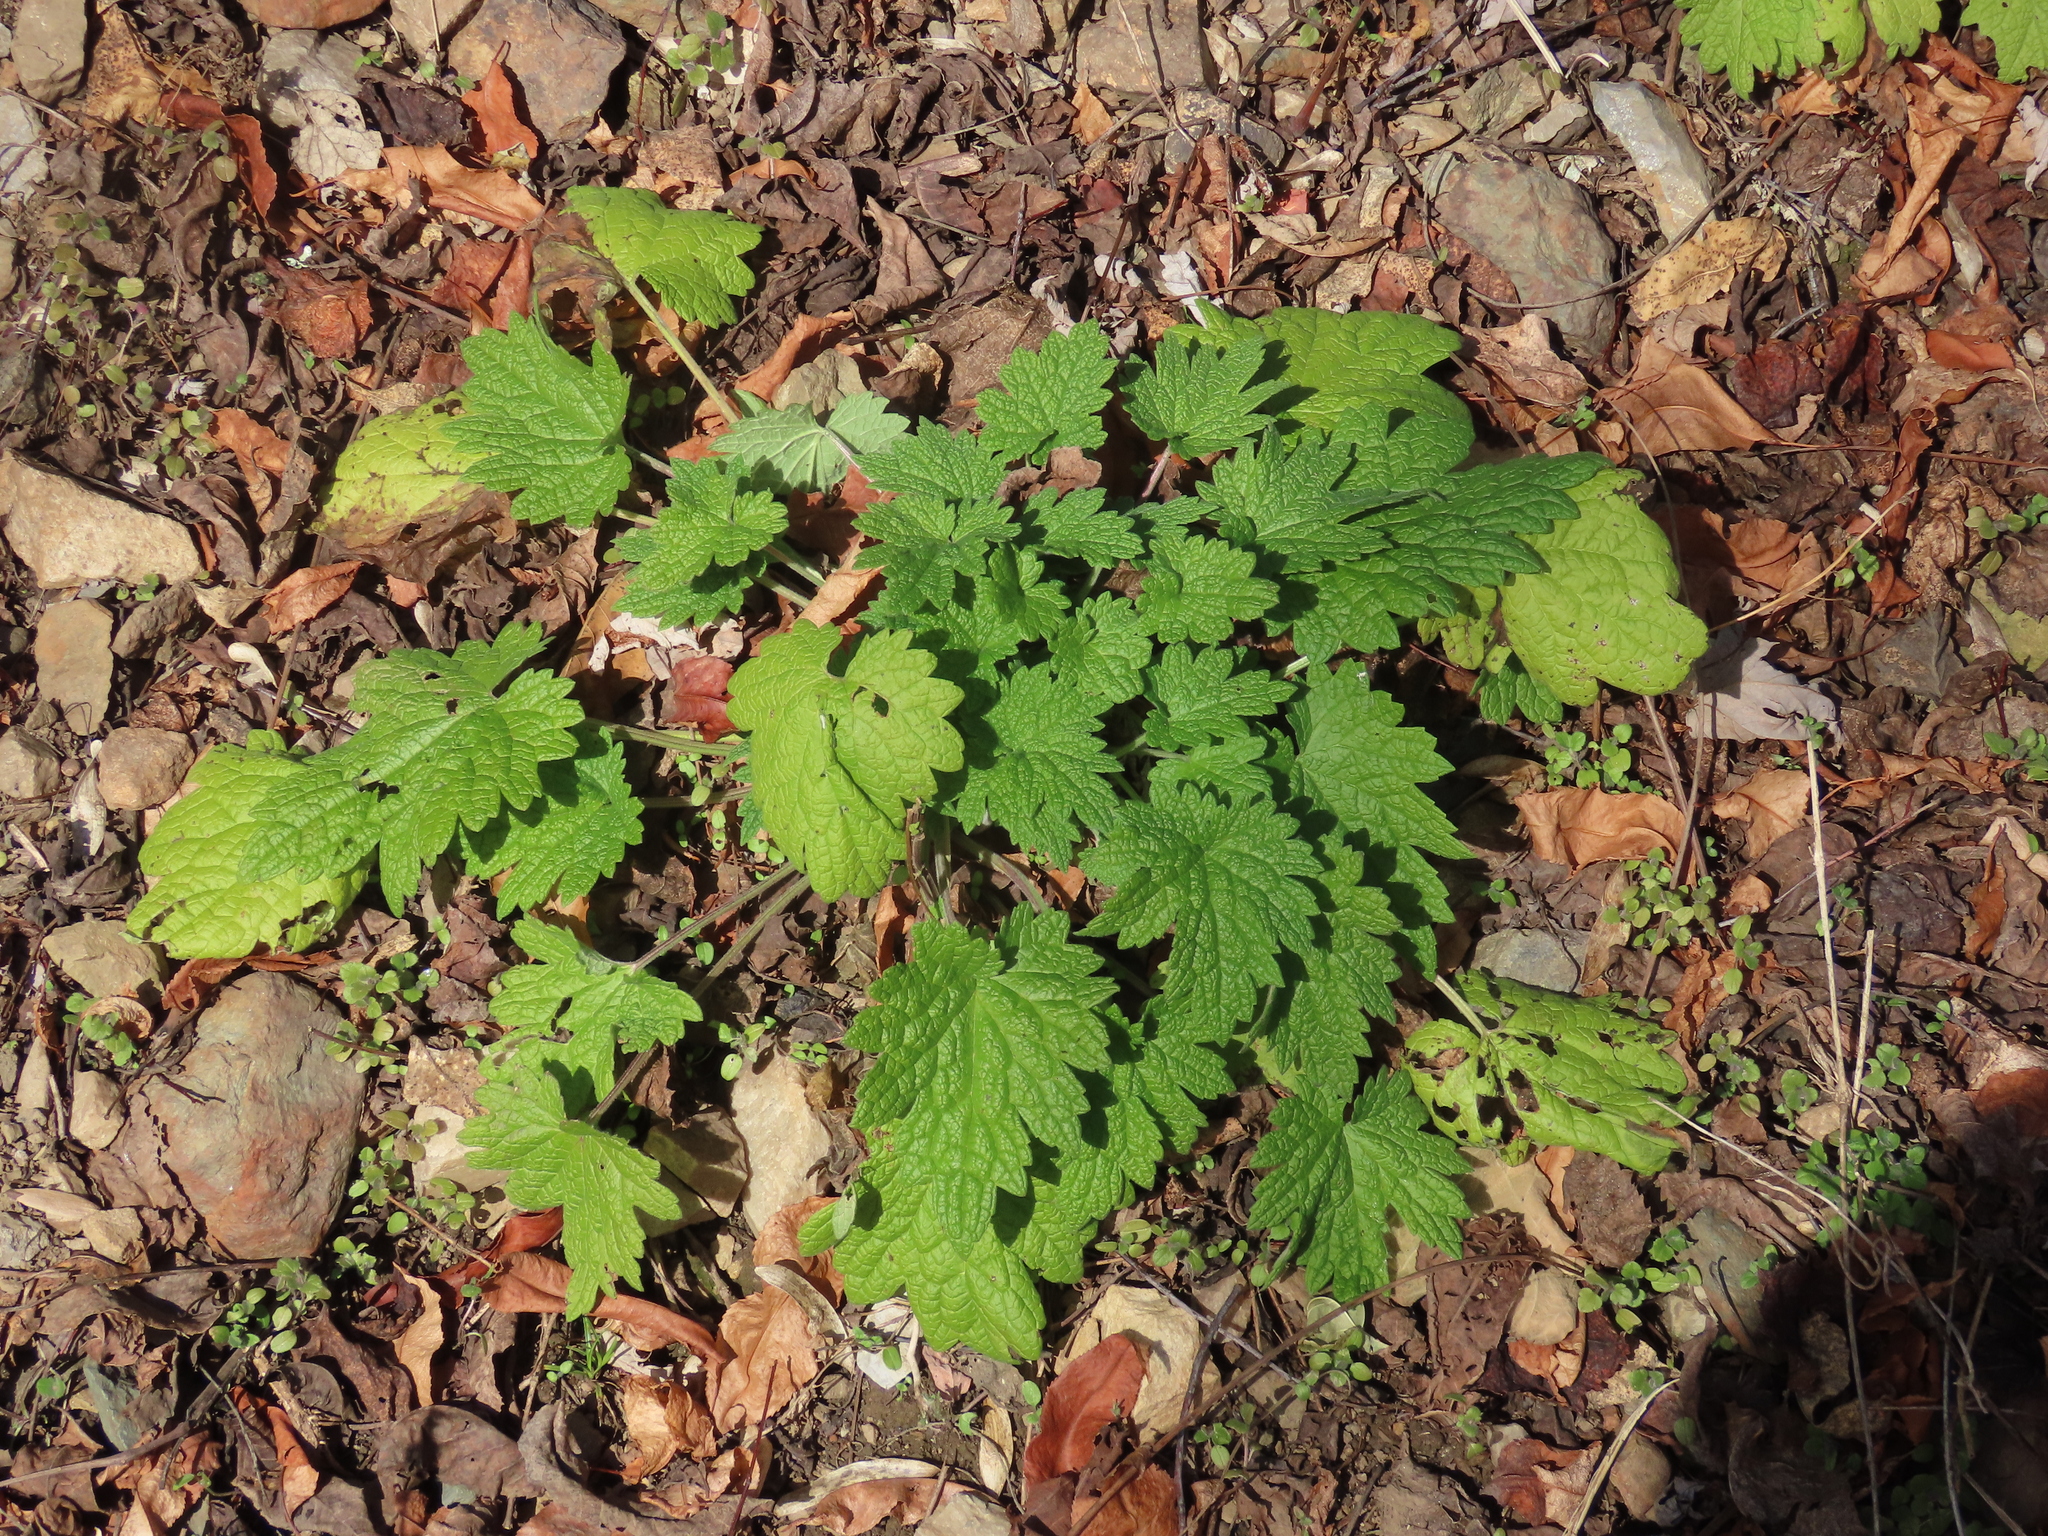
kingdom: Plantae
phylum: Tracheophyta
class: Magnoliopsida
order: Lamiales
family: Lamiaceae
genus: Leonurus
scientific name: Leonurus cardiaca
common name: Motherwort
